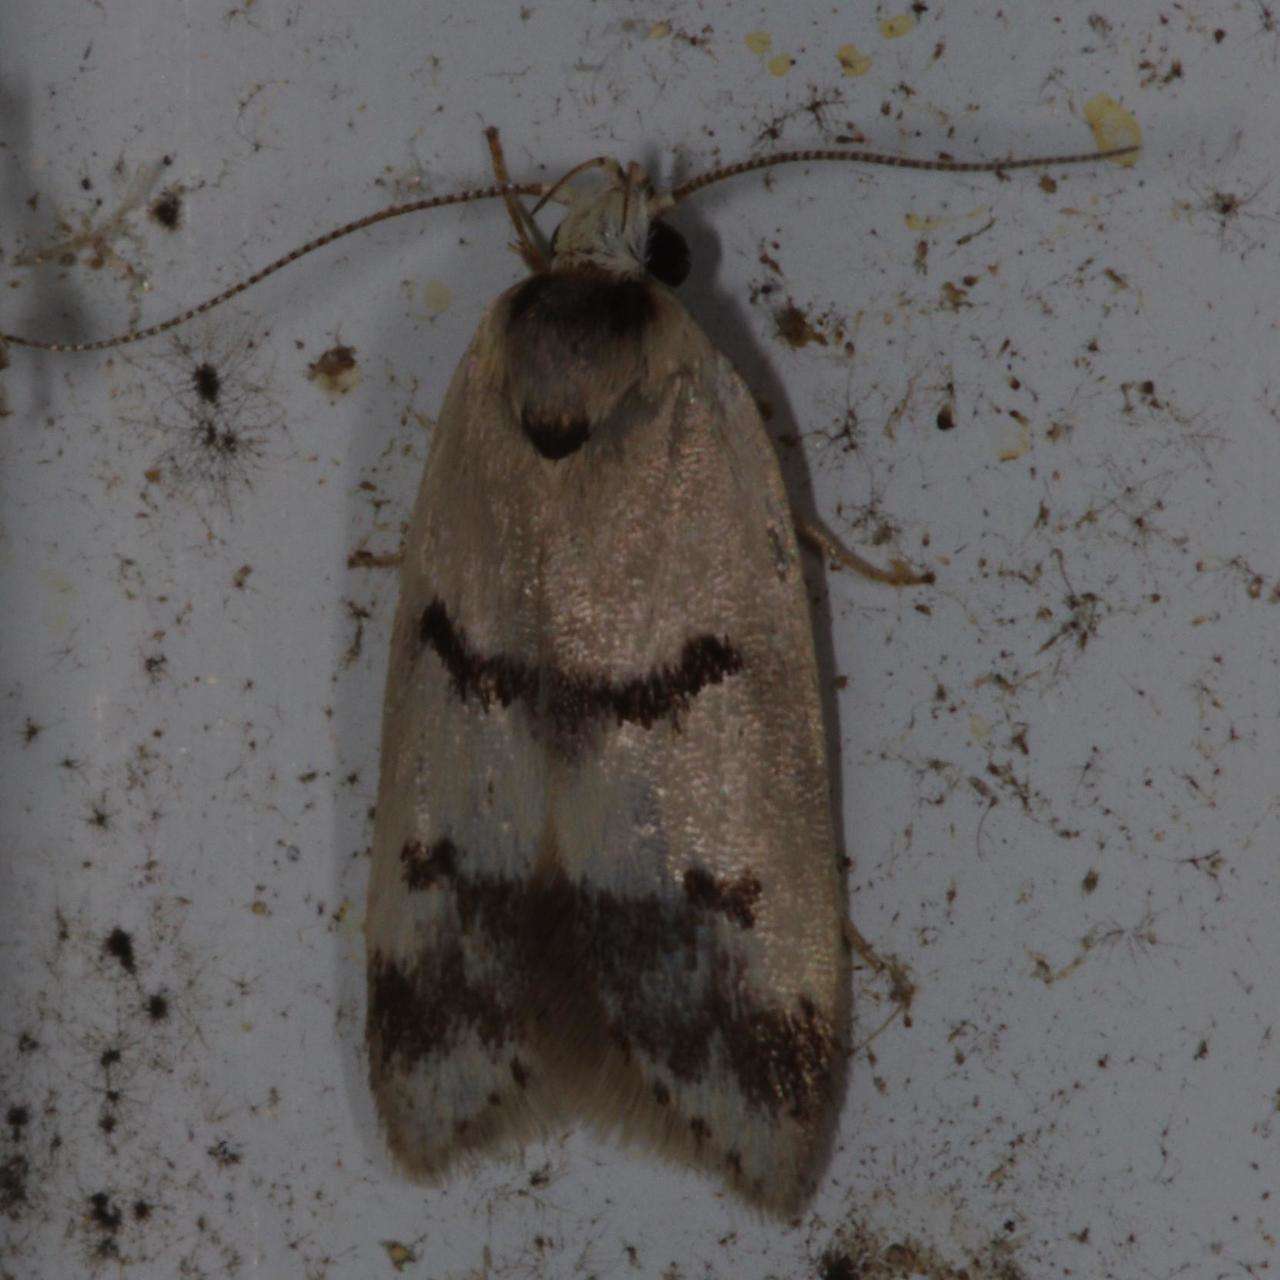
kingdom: Animalia
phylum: Arthropoda
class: Insecta
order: Lepidoptera
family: Oecophoridae
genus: Compsotropha
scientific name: Compsotropha strophiella
